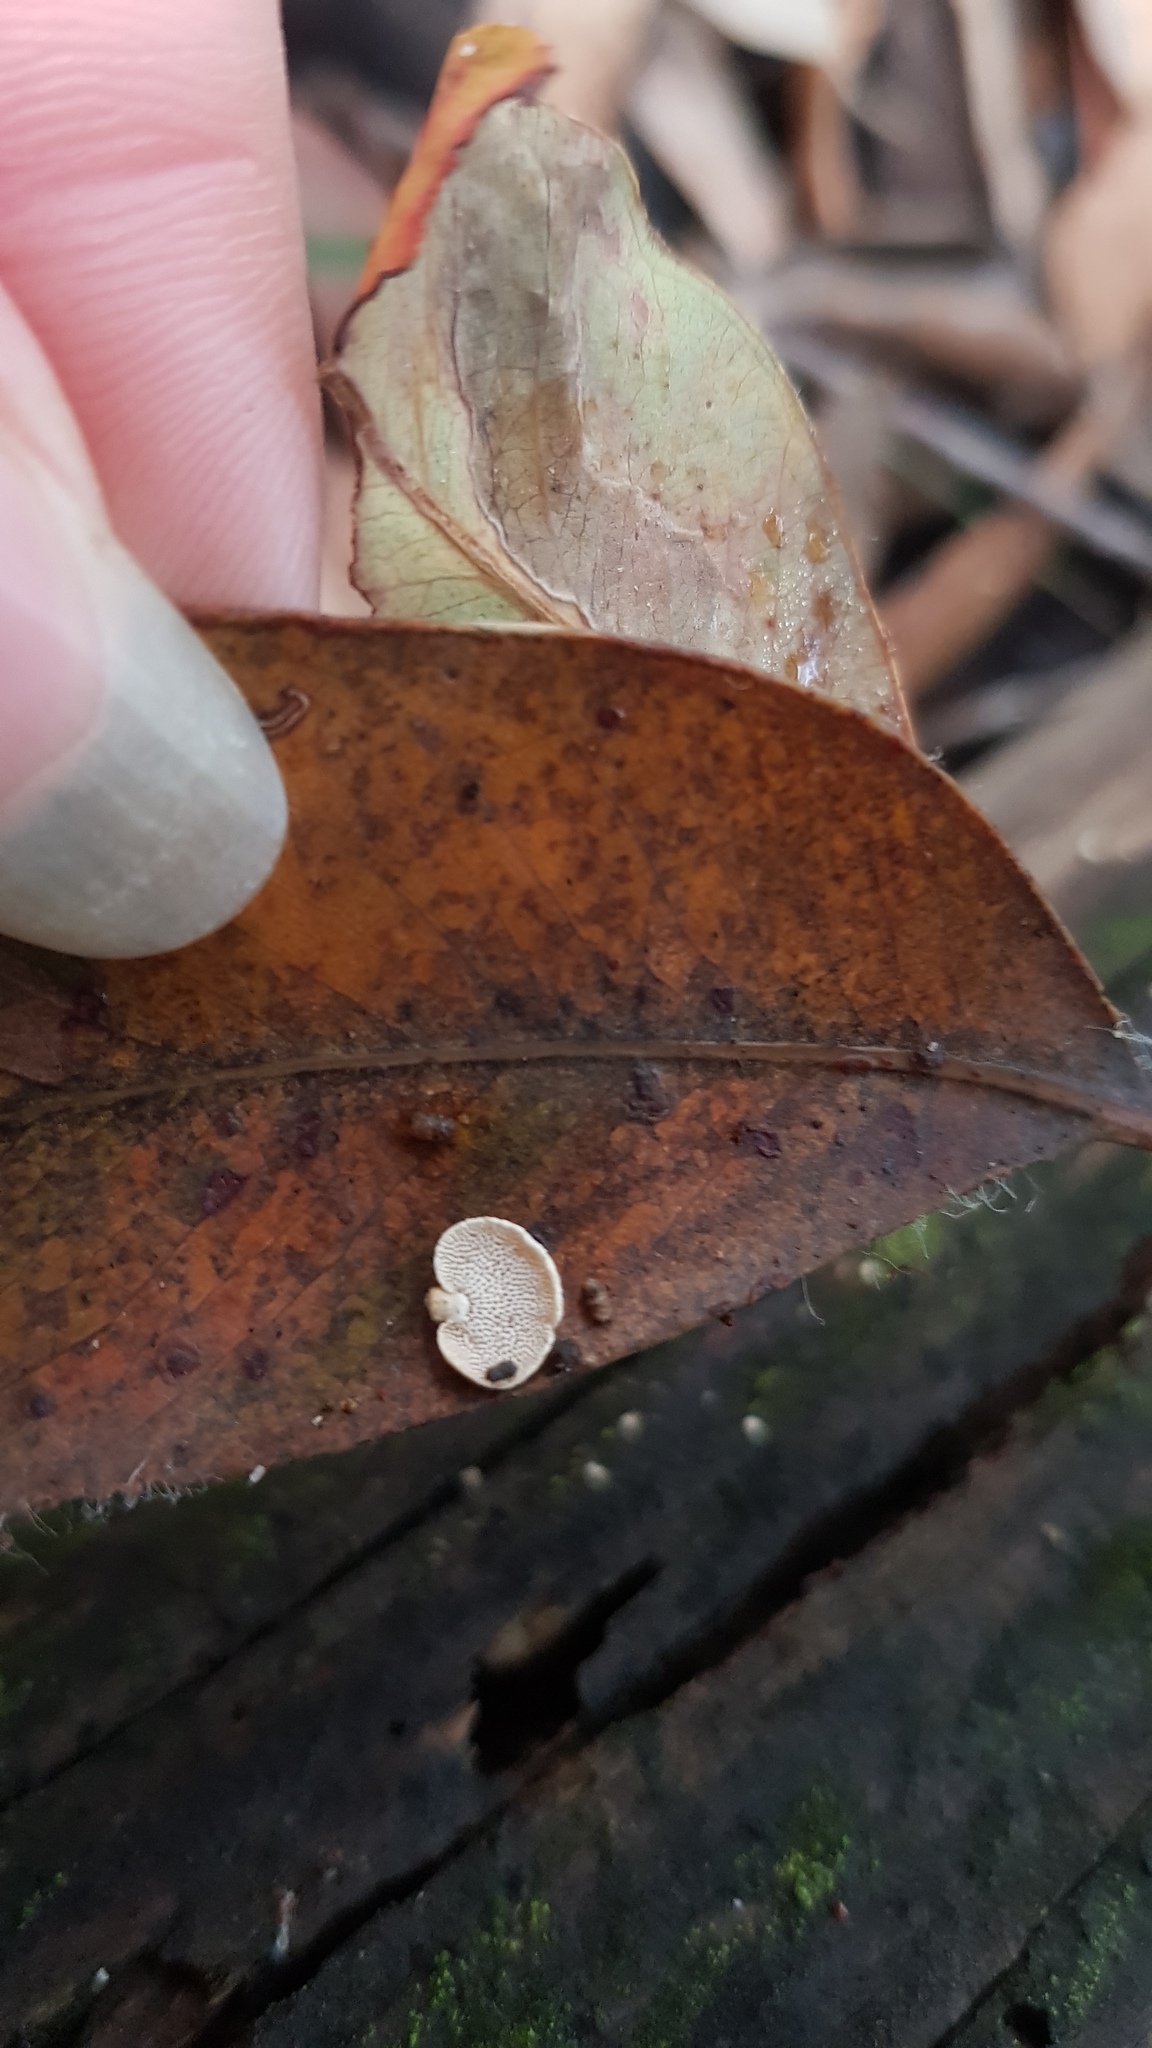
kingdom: Fungi
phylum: Basidiomycota
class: Agaricomycetes
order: Agaricales
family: Mycenaceae
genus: Panellus
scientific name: Panellus luxfilamentus
